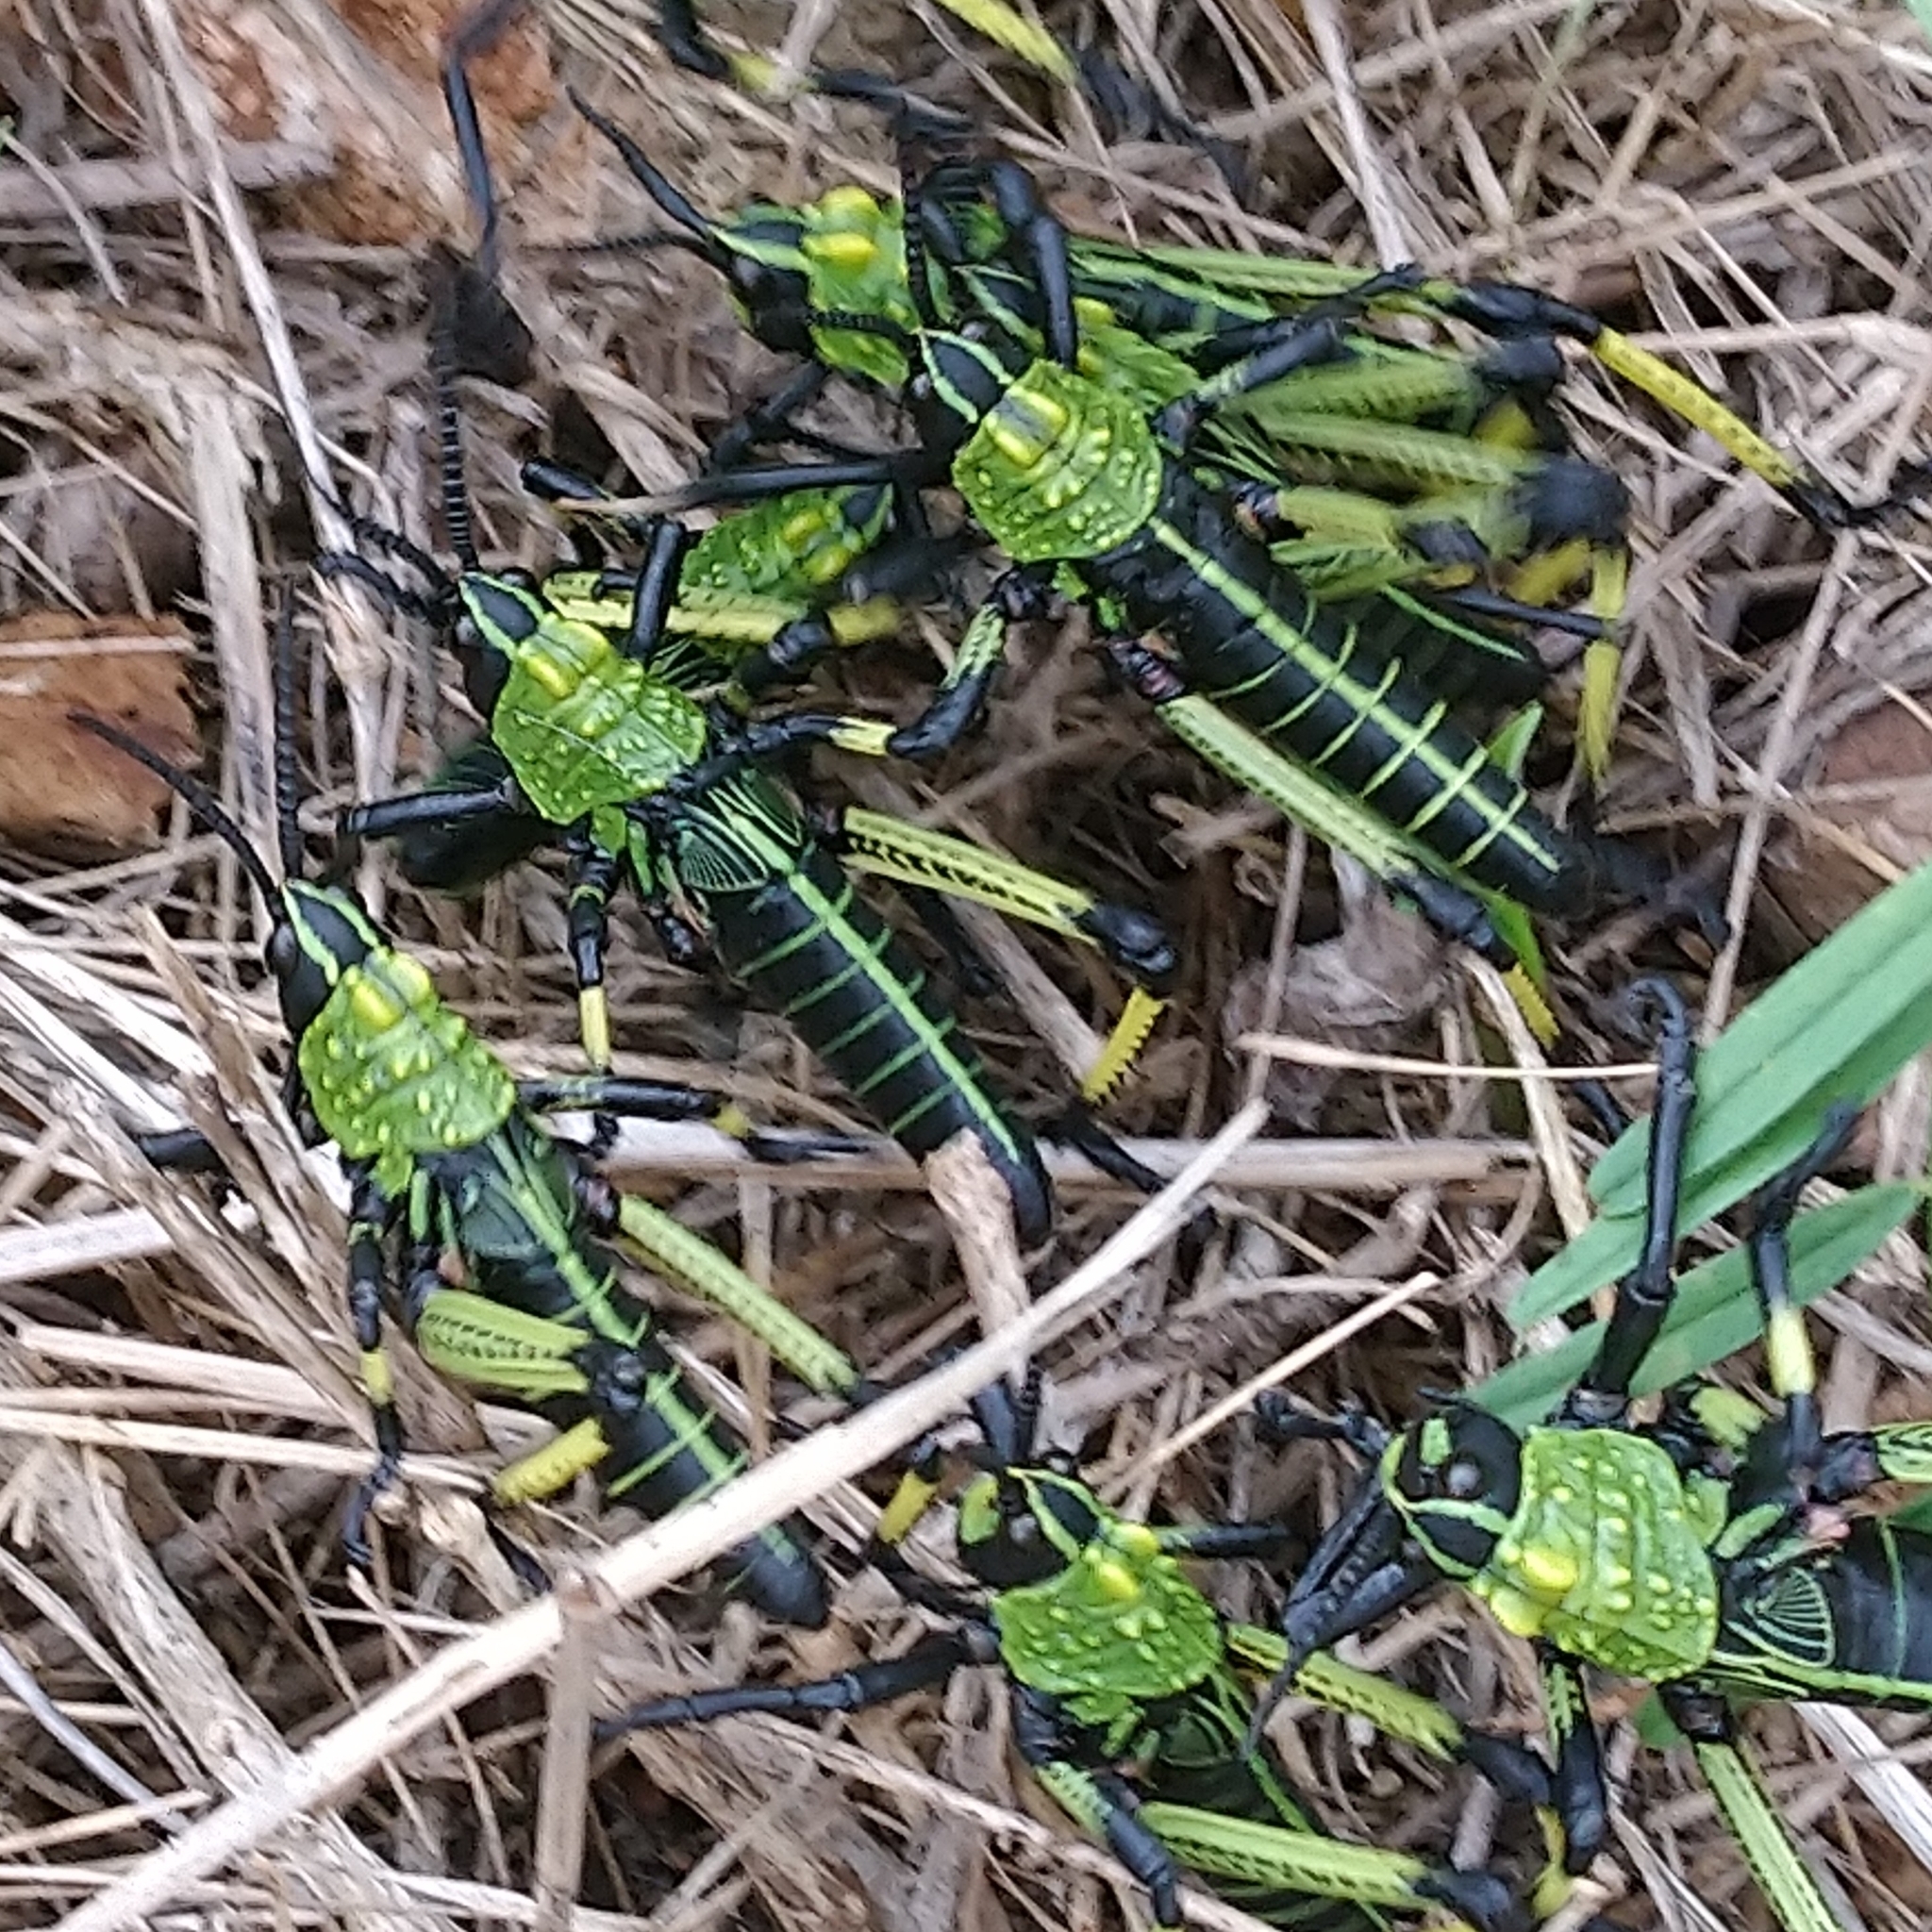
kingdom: Animalia
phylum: Arthropoda
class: Insecta
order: Orthoptera
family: Pyrgomorphidae
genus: Phymateus
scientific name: Phymateus leprosus
